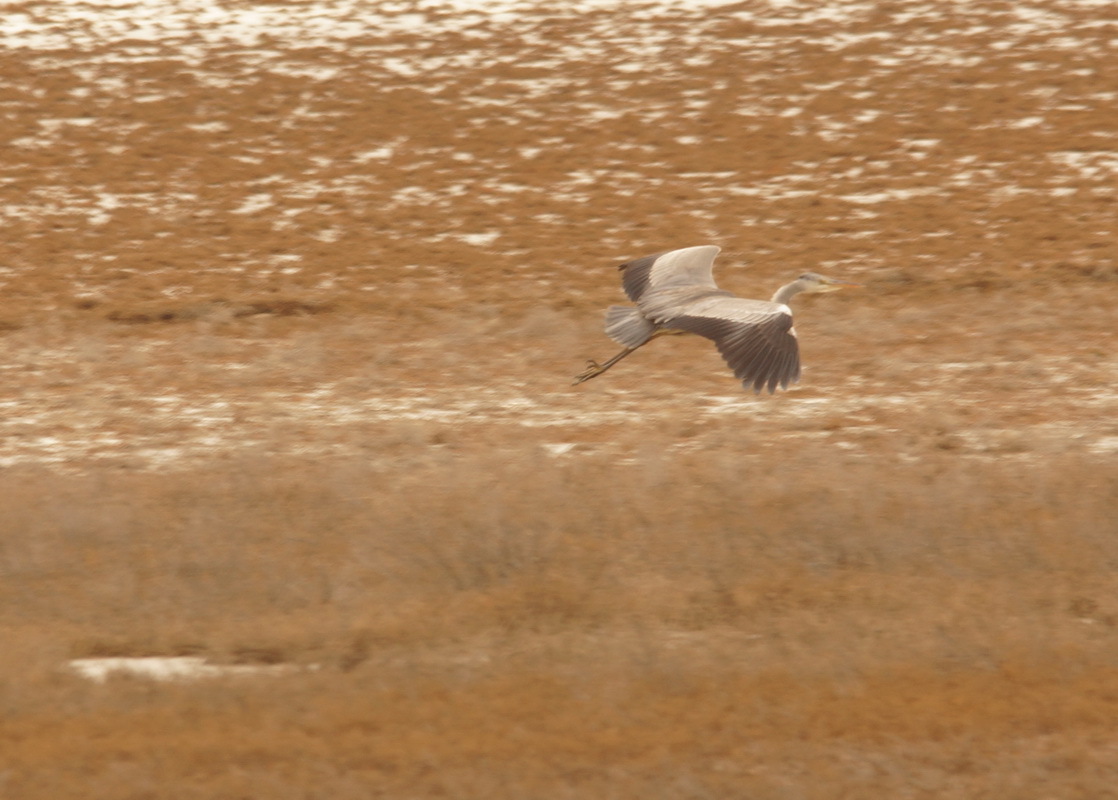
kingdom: Animalia
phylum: Chordata
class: Aves
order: Pelecaniformes
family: Ardeidae
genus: Ardea
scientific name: Ardea cinerea
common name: Grey heron
